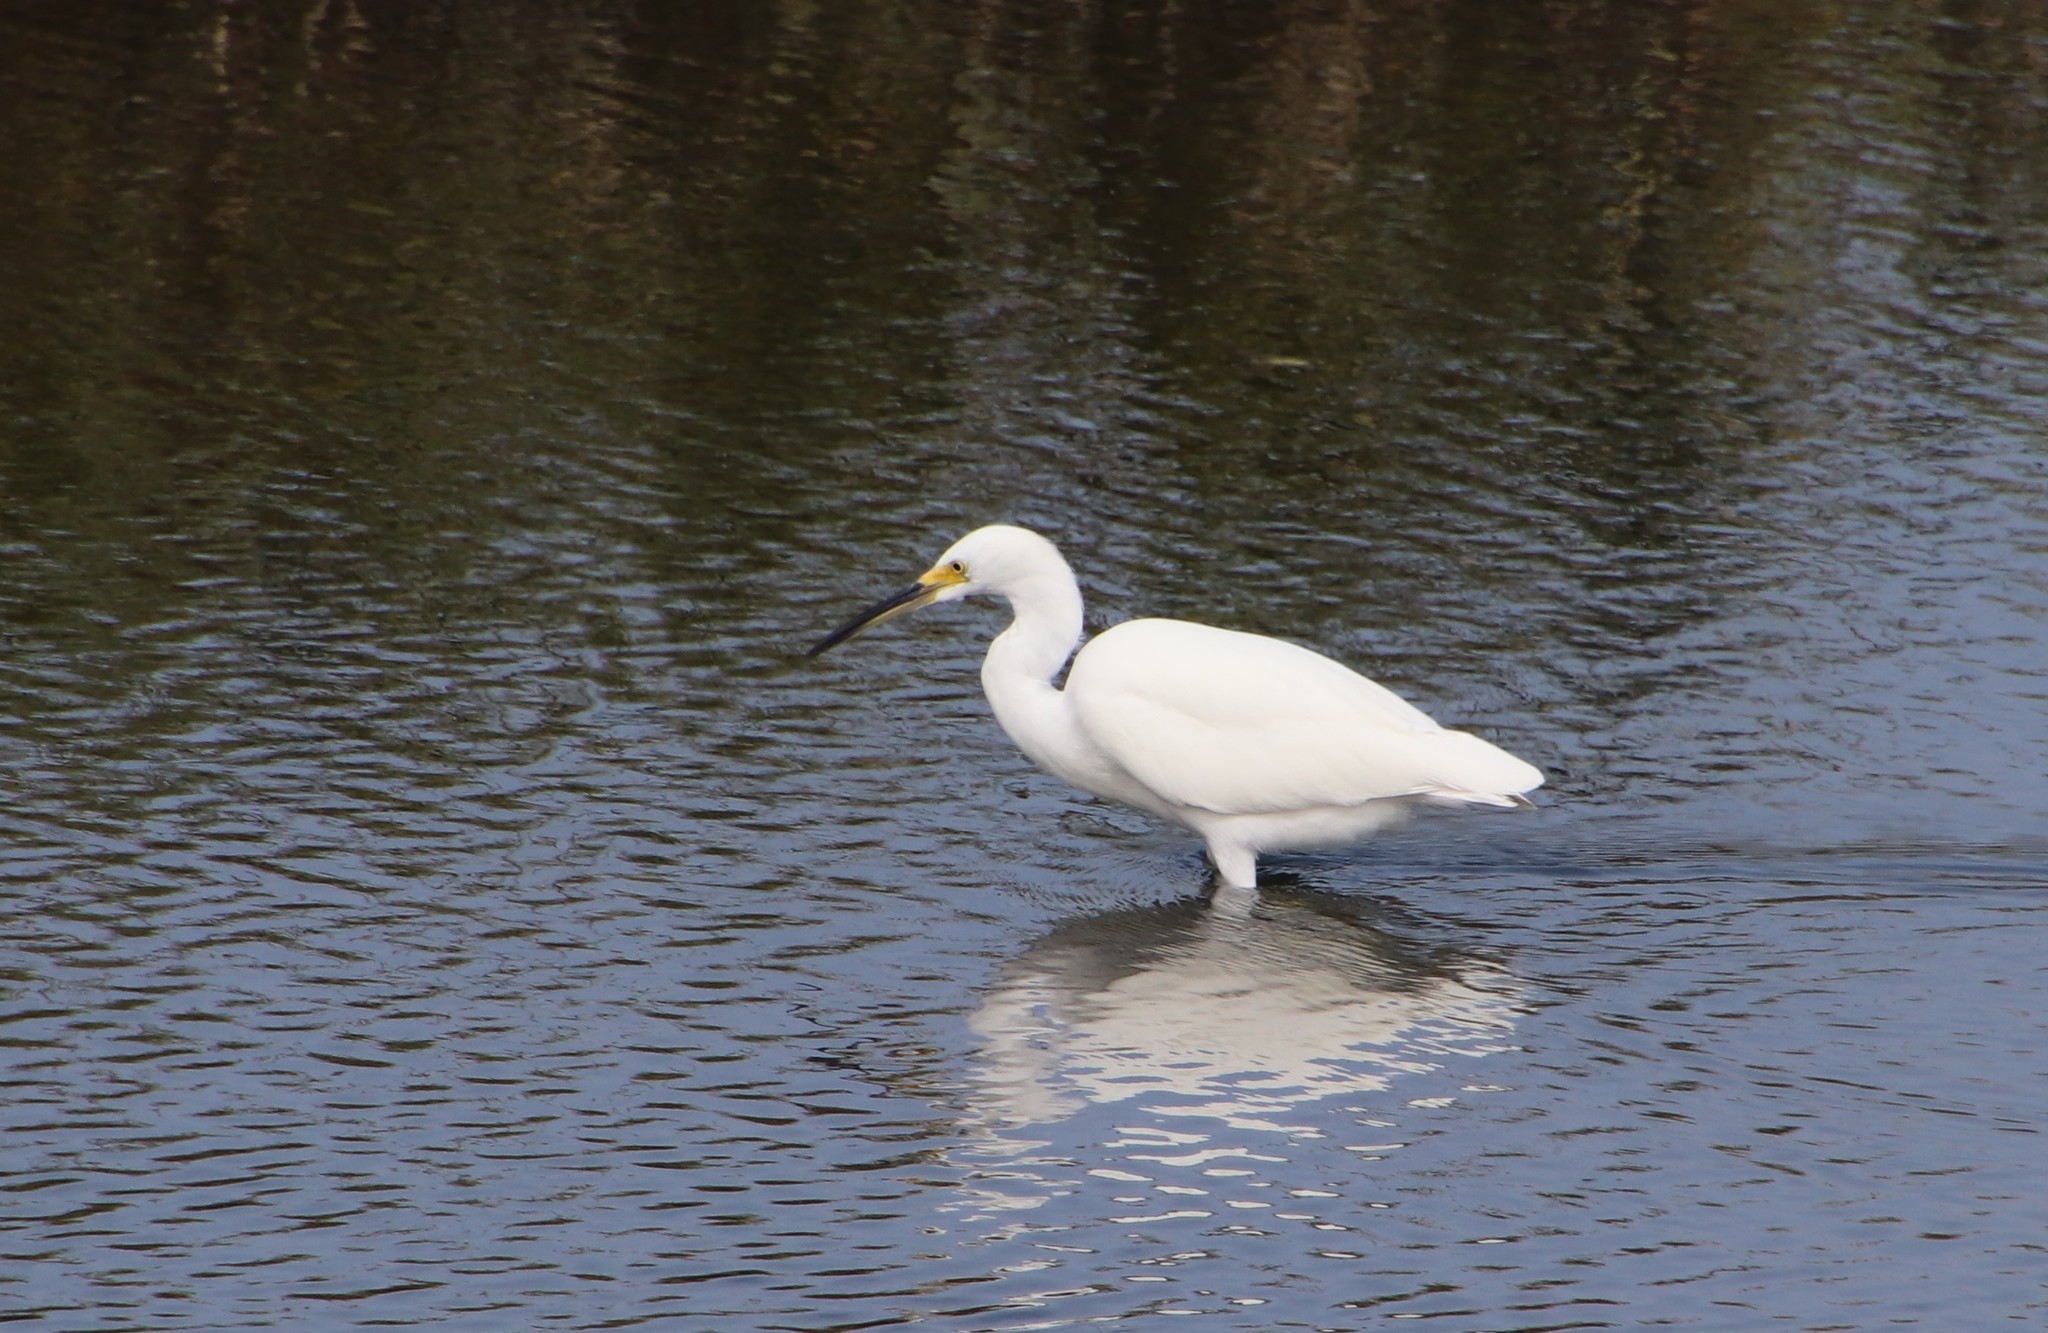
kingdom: Animalia
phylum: Chordata
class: Aves
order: Pelecaniformes
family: Ardeidae
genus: Egretta
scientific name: Egretta thula
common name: Snowy egret
